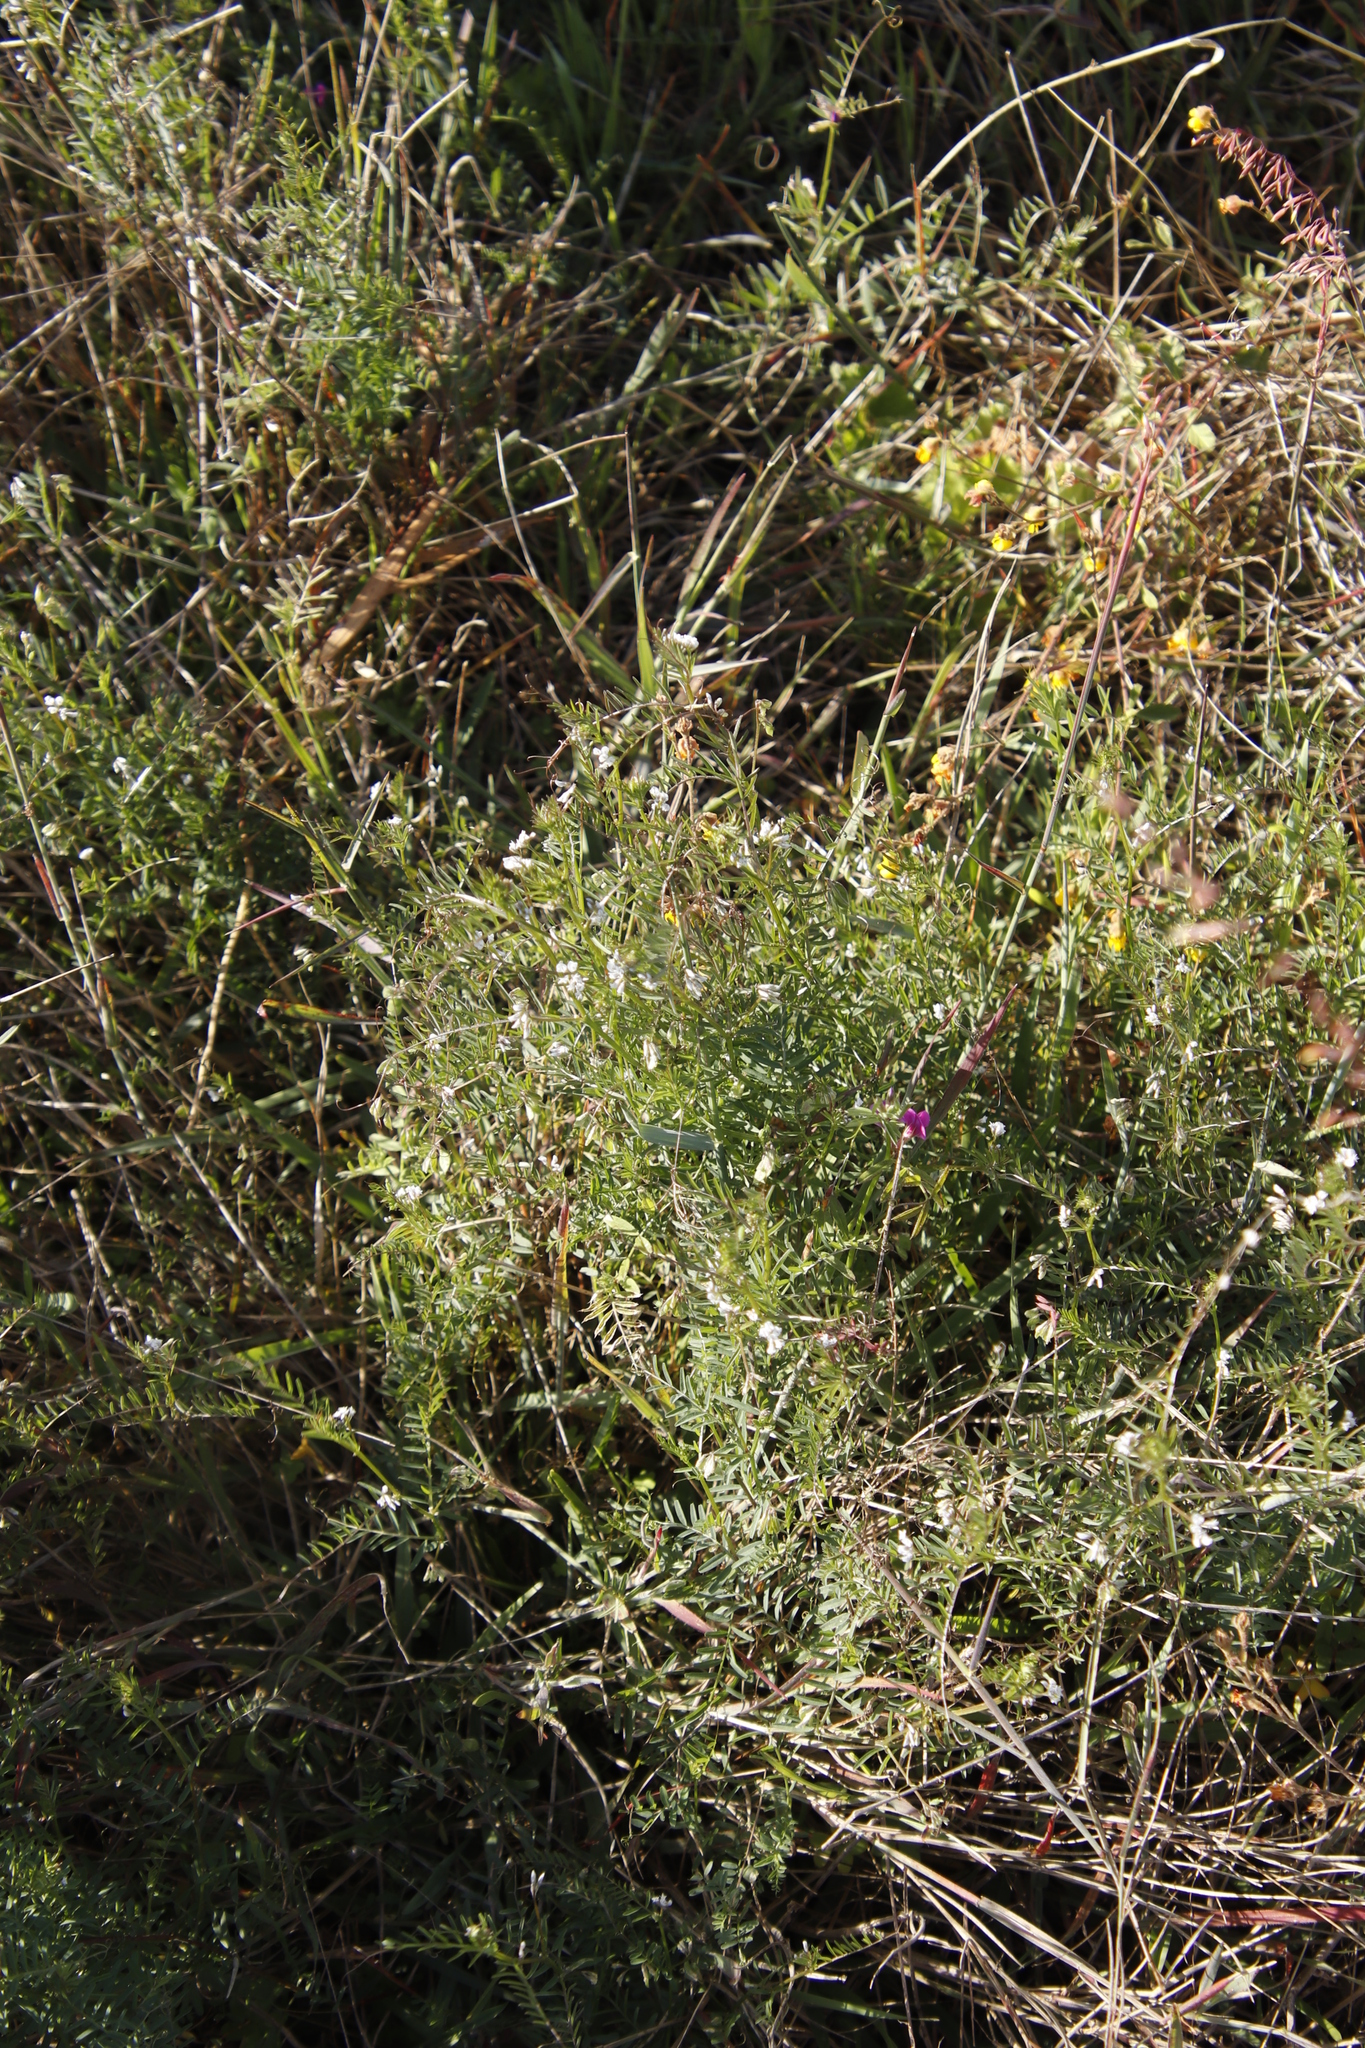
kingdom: Plantae
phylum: Tracheophyta
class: Magnoliopsida
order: Fabales
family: Fabaceae
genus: Vicia
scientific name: Vicia hirsuta
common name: Tiny vetch
